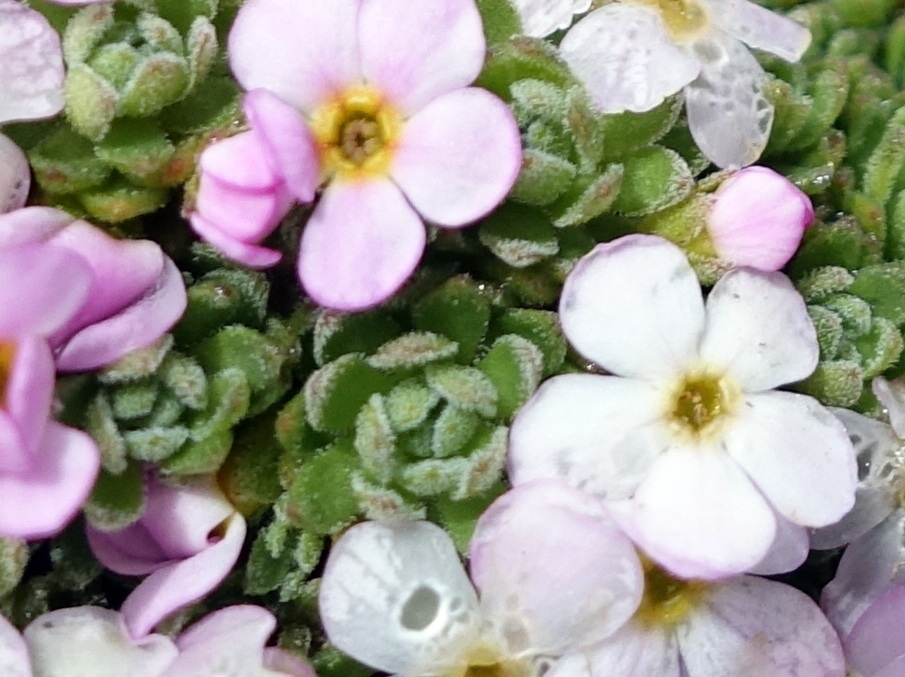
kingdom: Plantae
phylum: Tracheophyta
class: Magnoliopsida
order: Ericales
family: Primulaceae
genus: Androsace
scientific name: Androsace alpina
